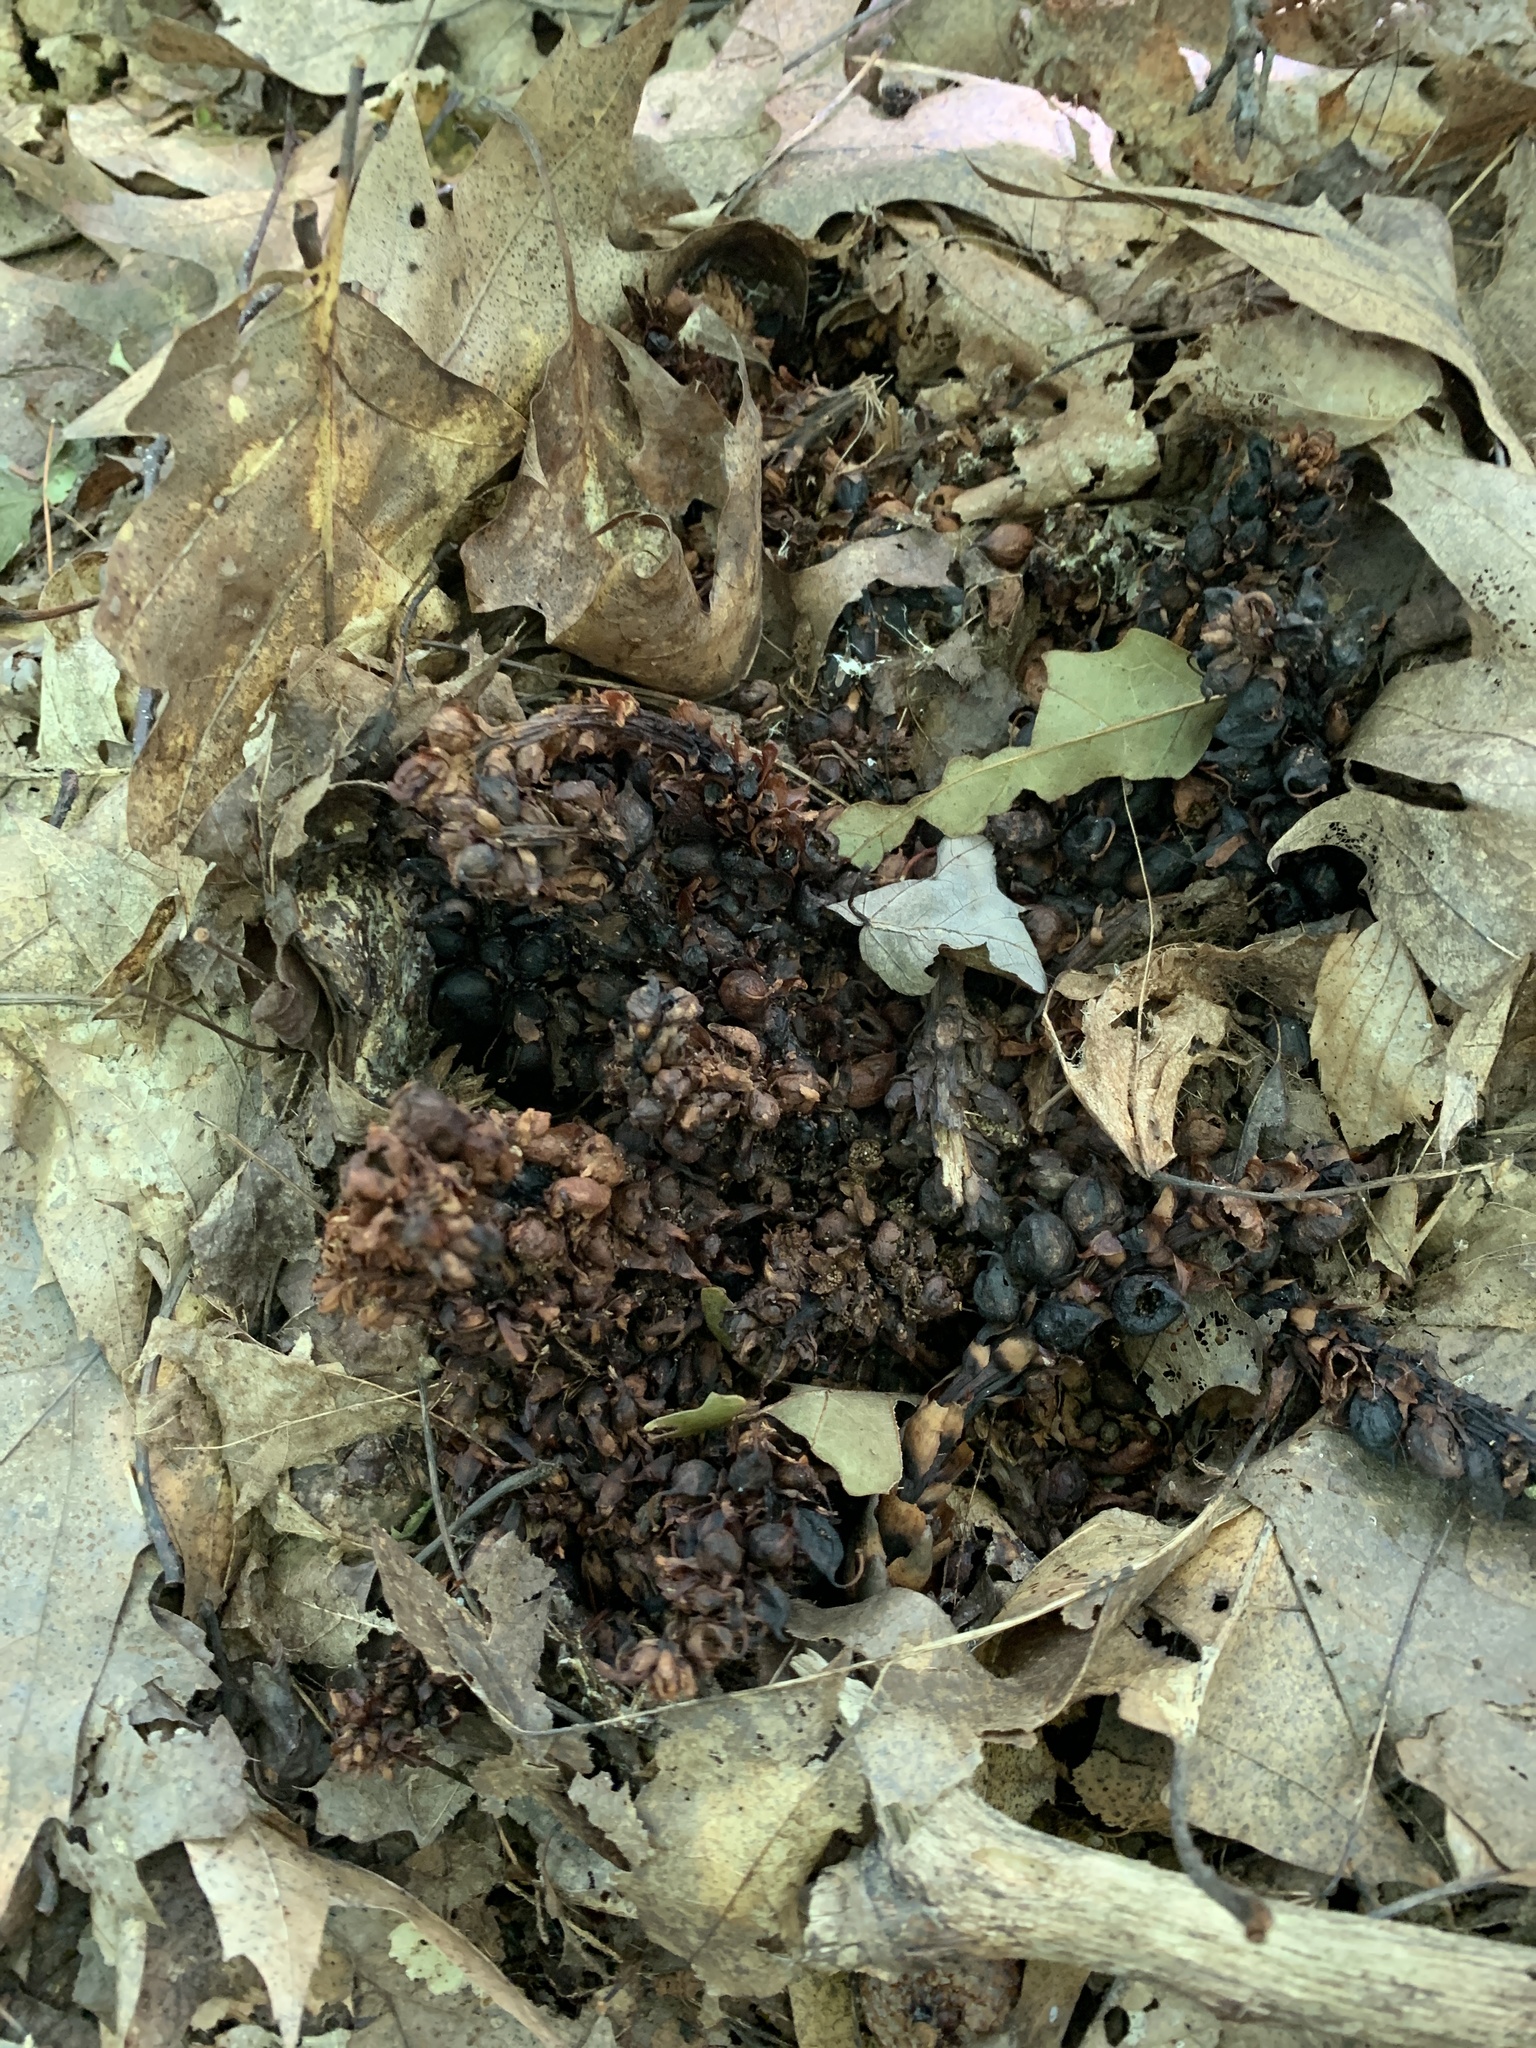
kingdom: Plantae
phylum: Tracheophyta
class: Magnoliopsida
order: Lamiales
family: Orobanchaceae
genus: Conopholis
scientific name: Conopholis americana
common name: American cancer-root
